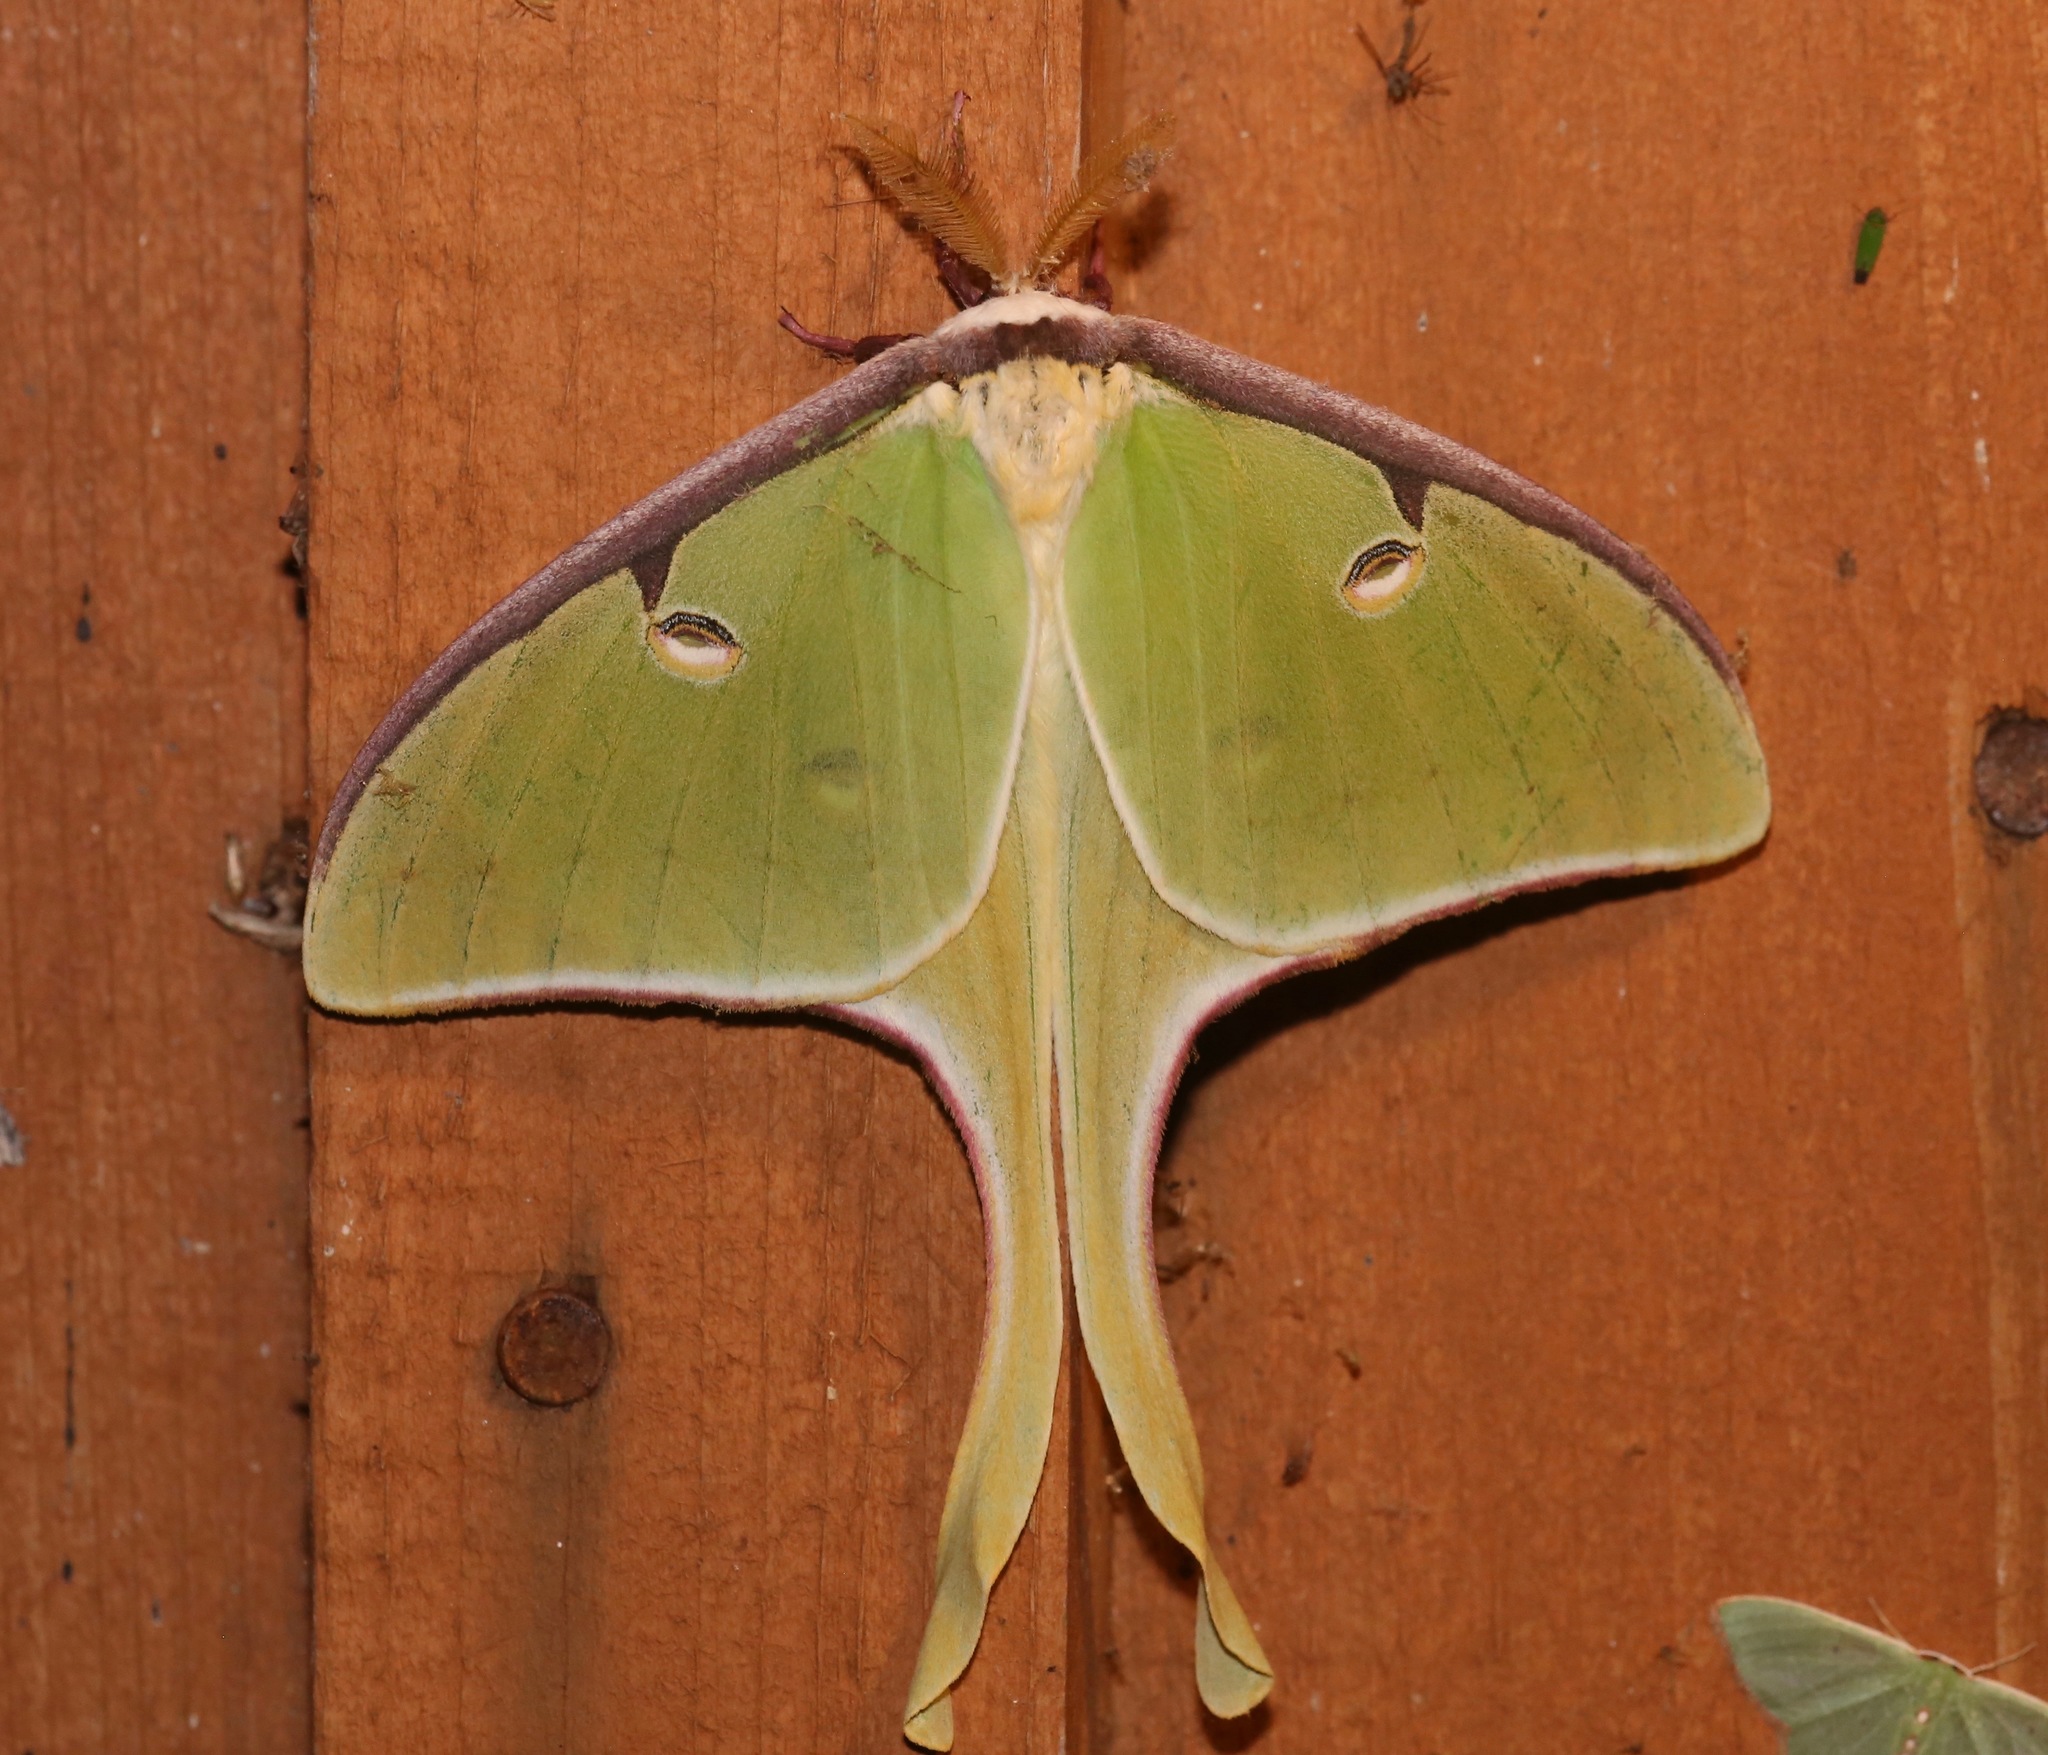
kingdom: Animalia
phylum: Arthropoda
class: Insecta
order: Lepidoptera
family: Saturniidae
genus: Actias
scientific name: Actias luna
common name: Luna moth
